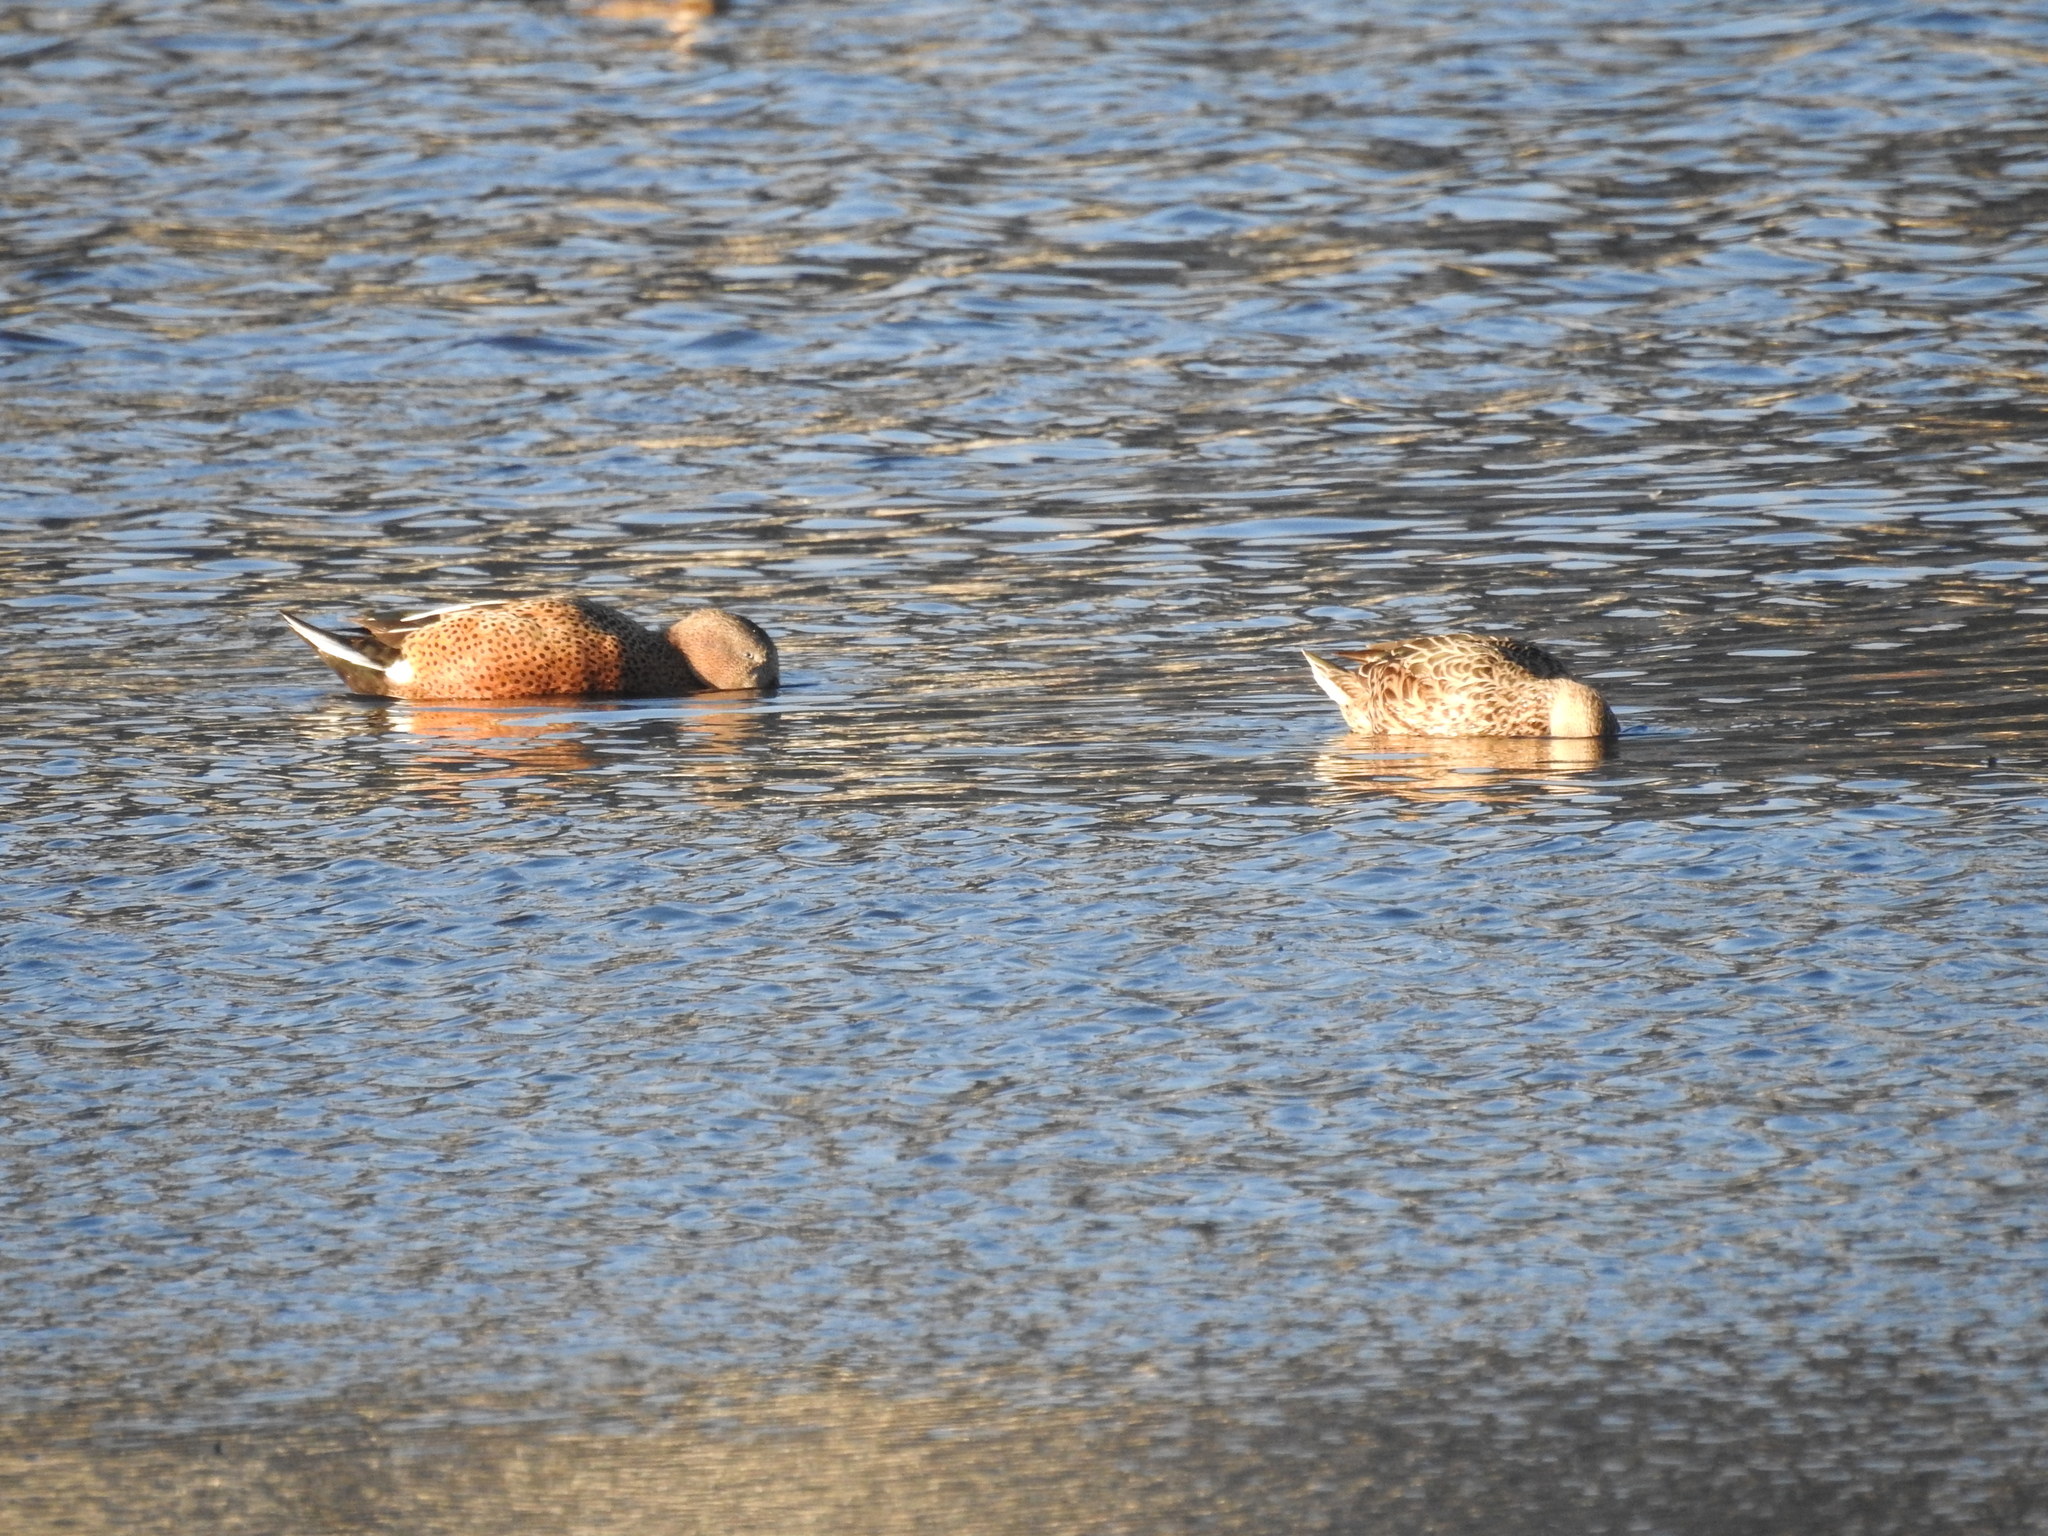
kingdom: Animalia
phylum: Chordata
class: Aves
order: Anseriformes
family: Anatidae
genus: Spatula
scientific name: Spatula platalea
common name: Red shoveler
